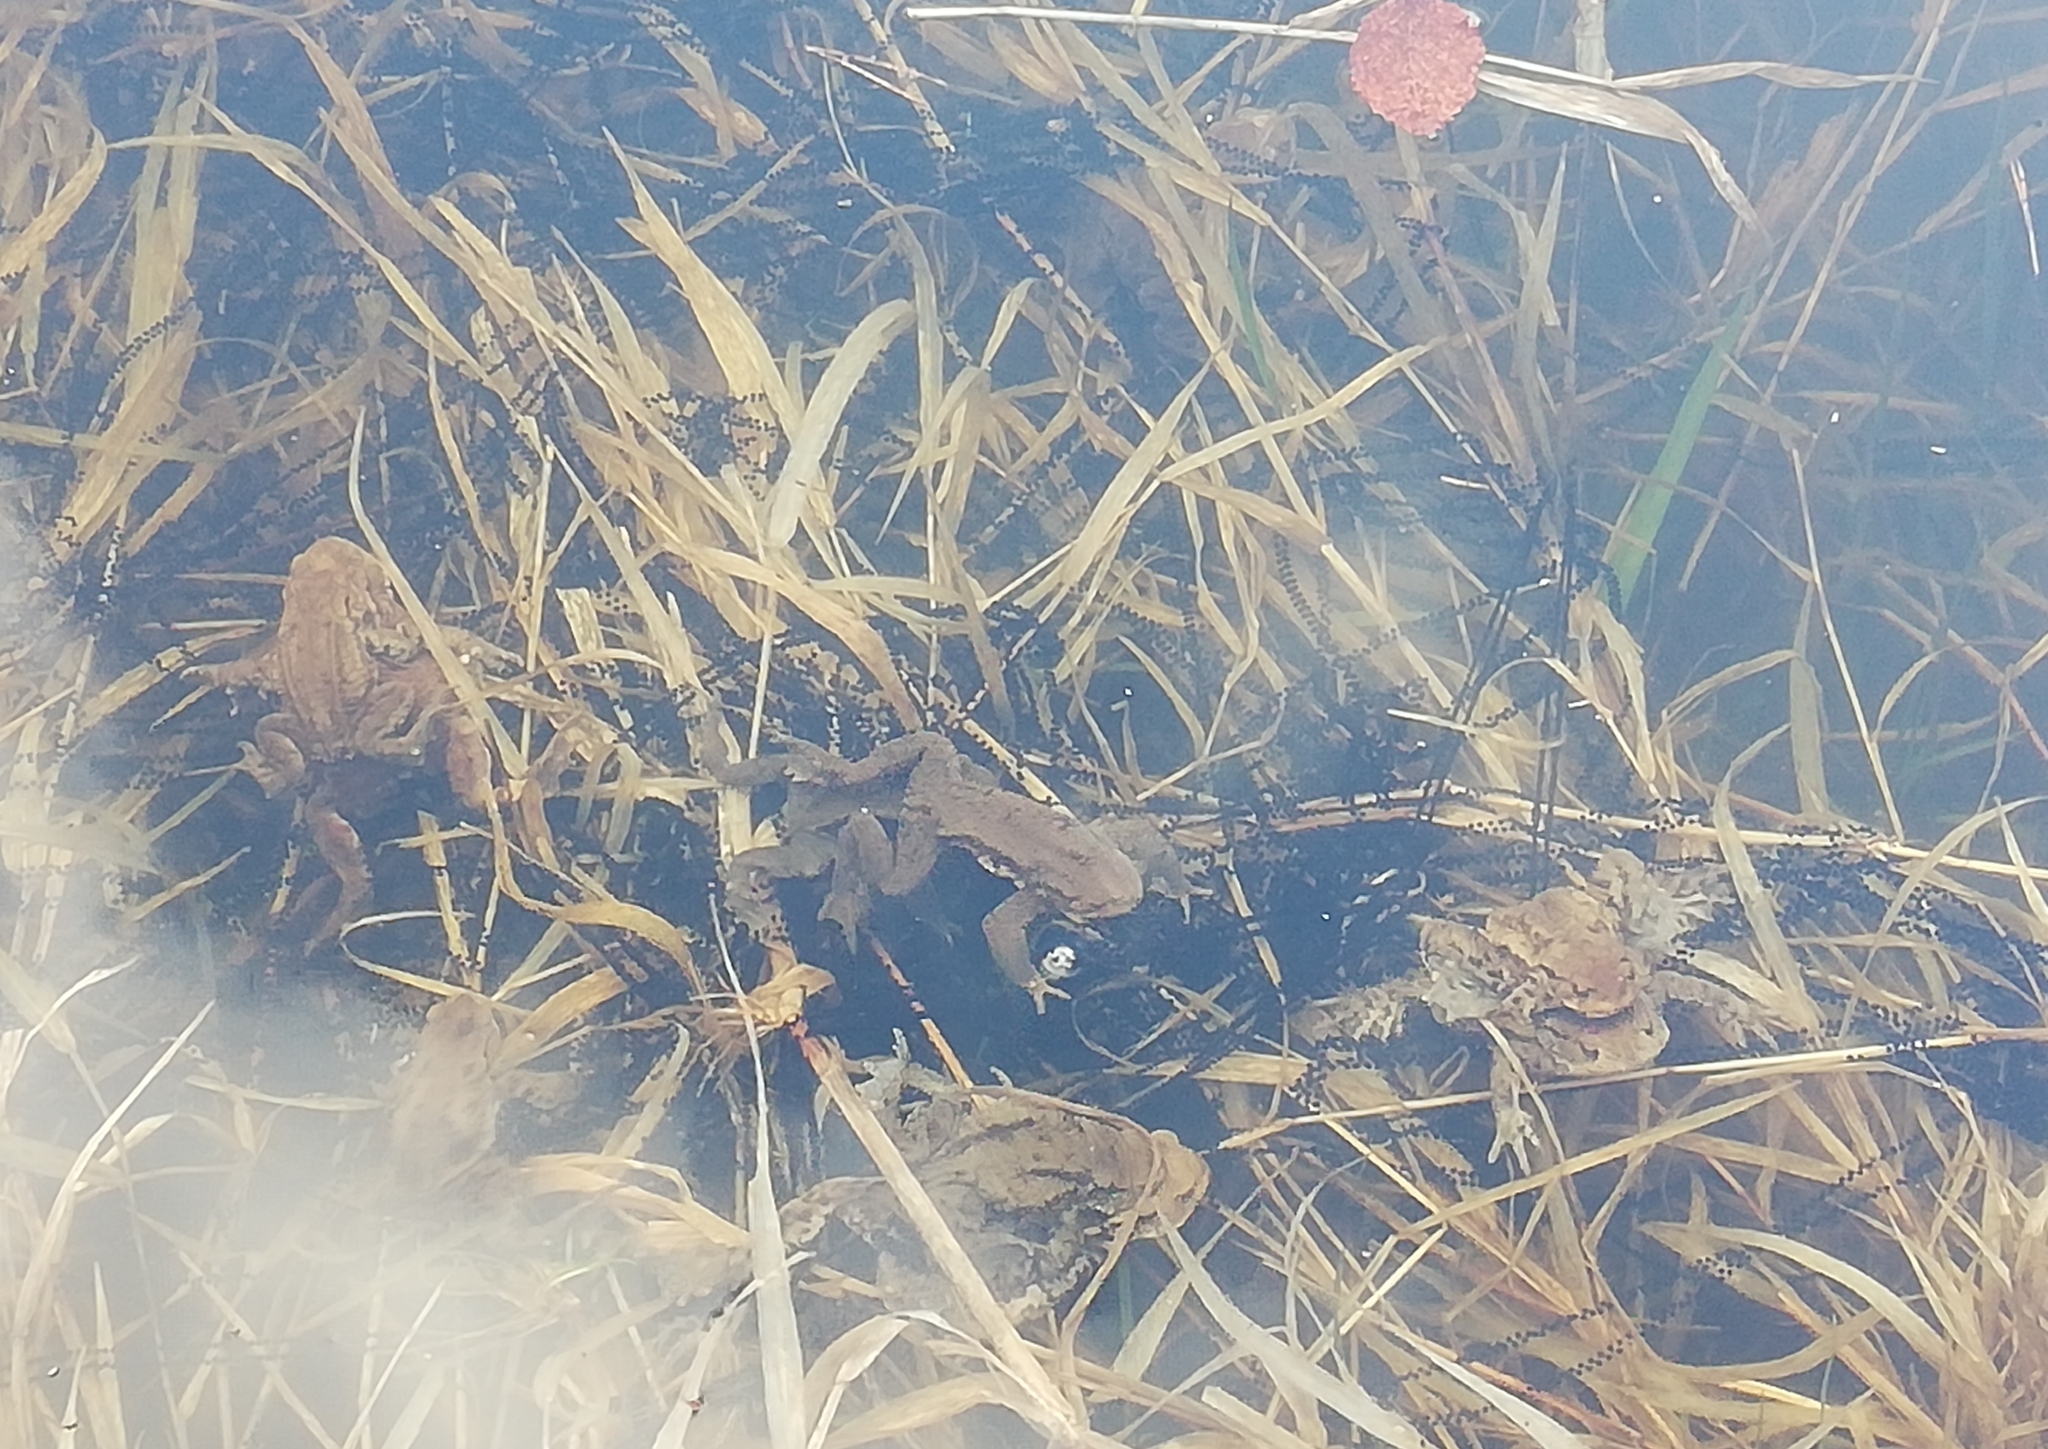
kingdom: Animalia
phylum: Chordata
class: Amphibia
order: Anura
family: Bufonidae
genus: Bufo
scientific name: Bufo bufo
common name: Common toad
